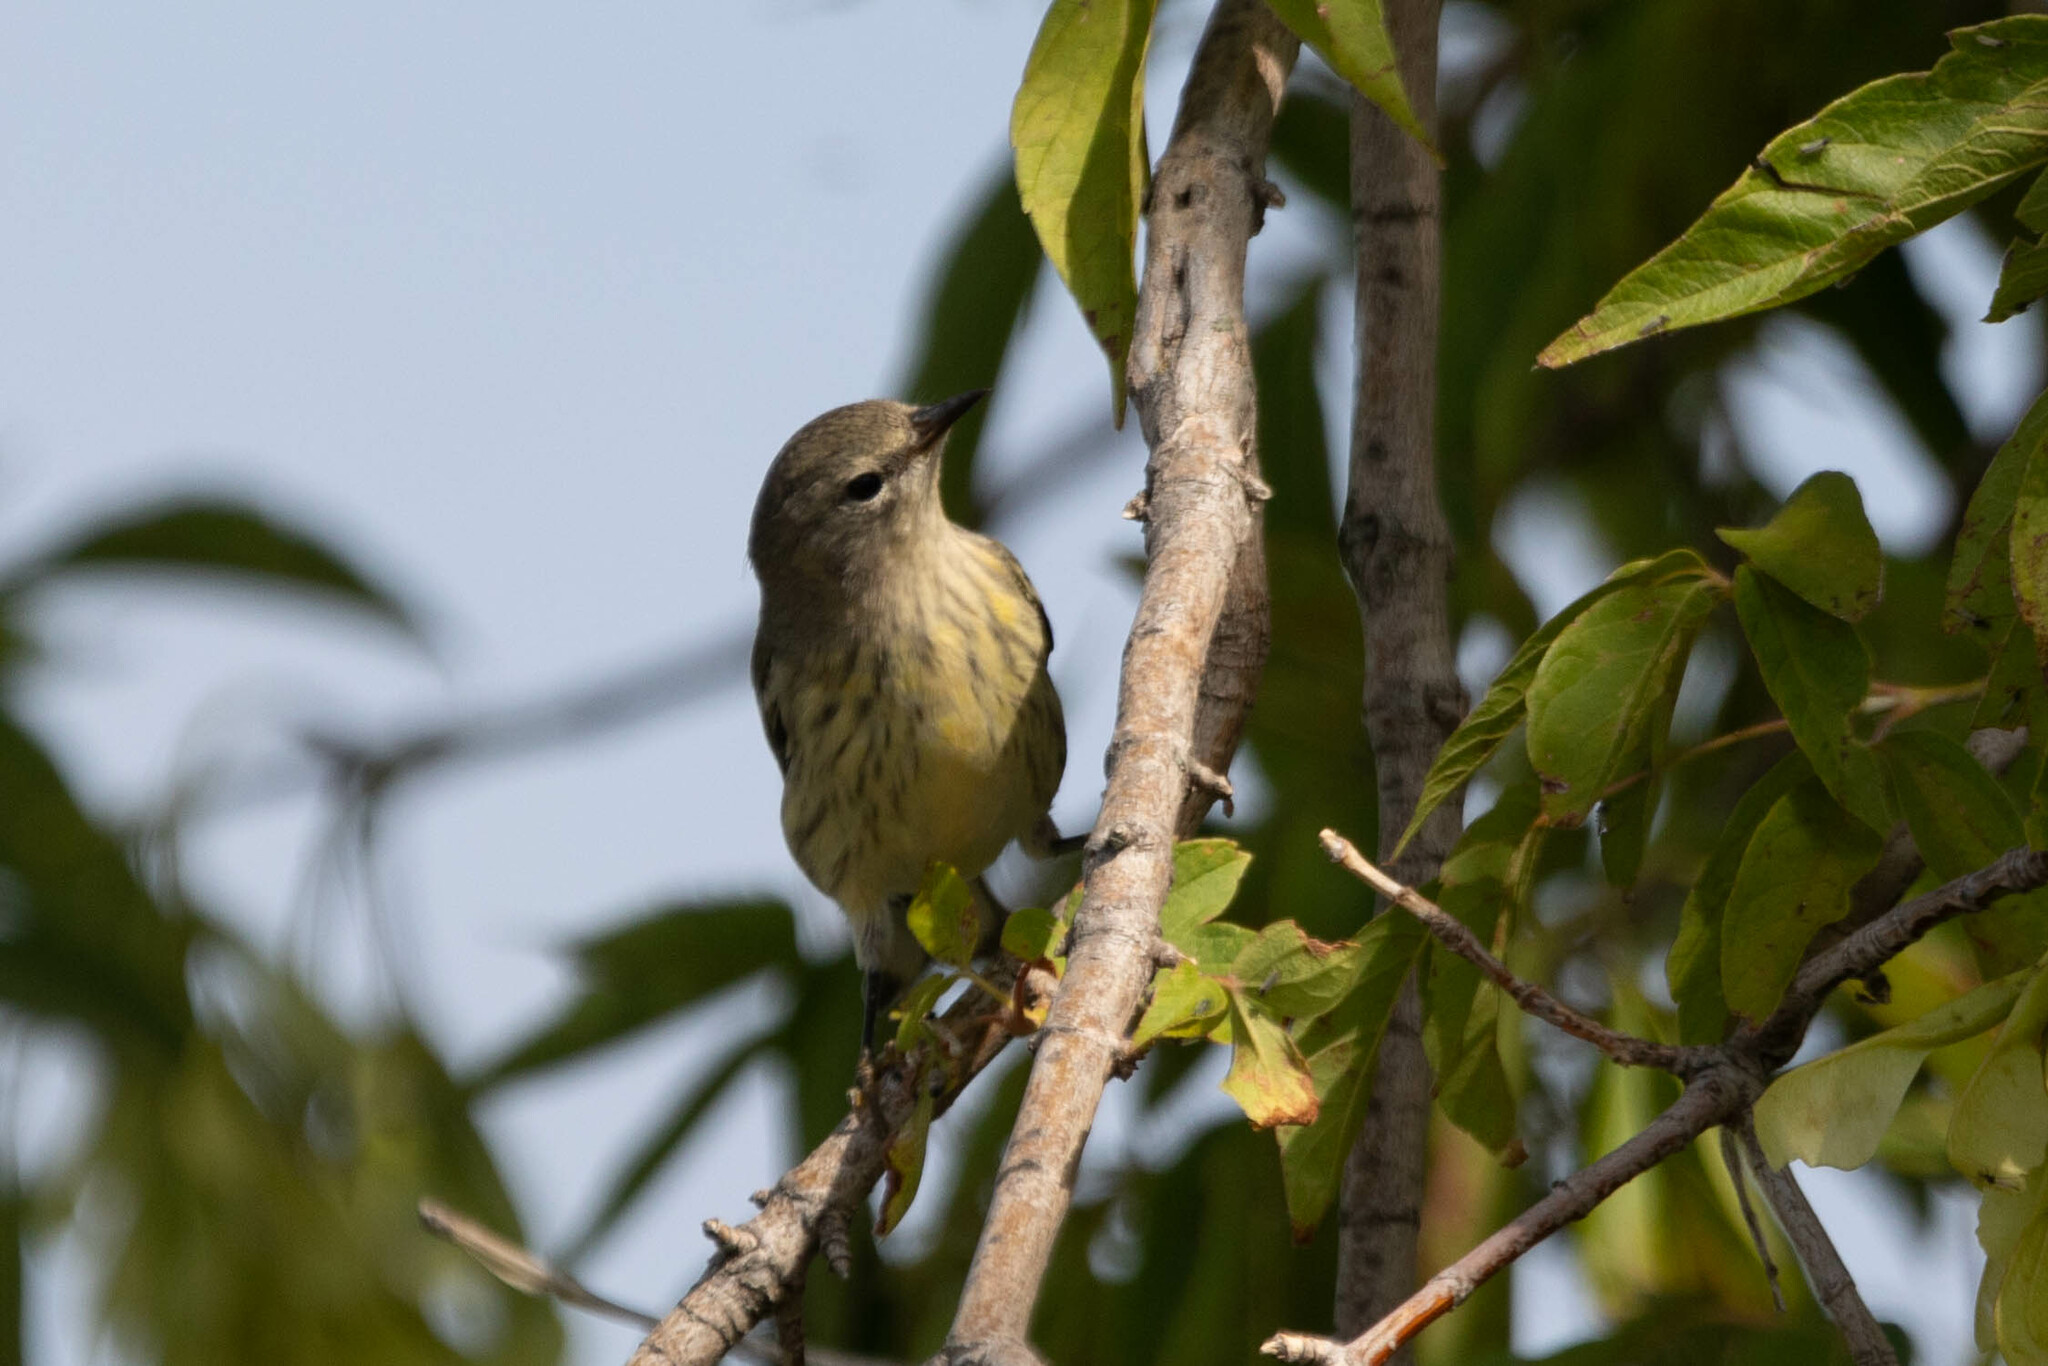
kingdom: Animalia
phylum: Chordata
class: Aves
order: Passeriformes
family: Parulidae
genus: Setophaga
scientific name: Setophaga tigrina
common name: Cape may warbler
